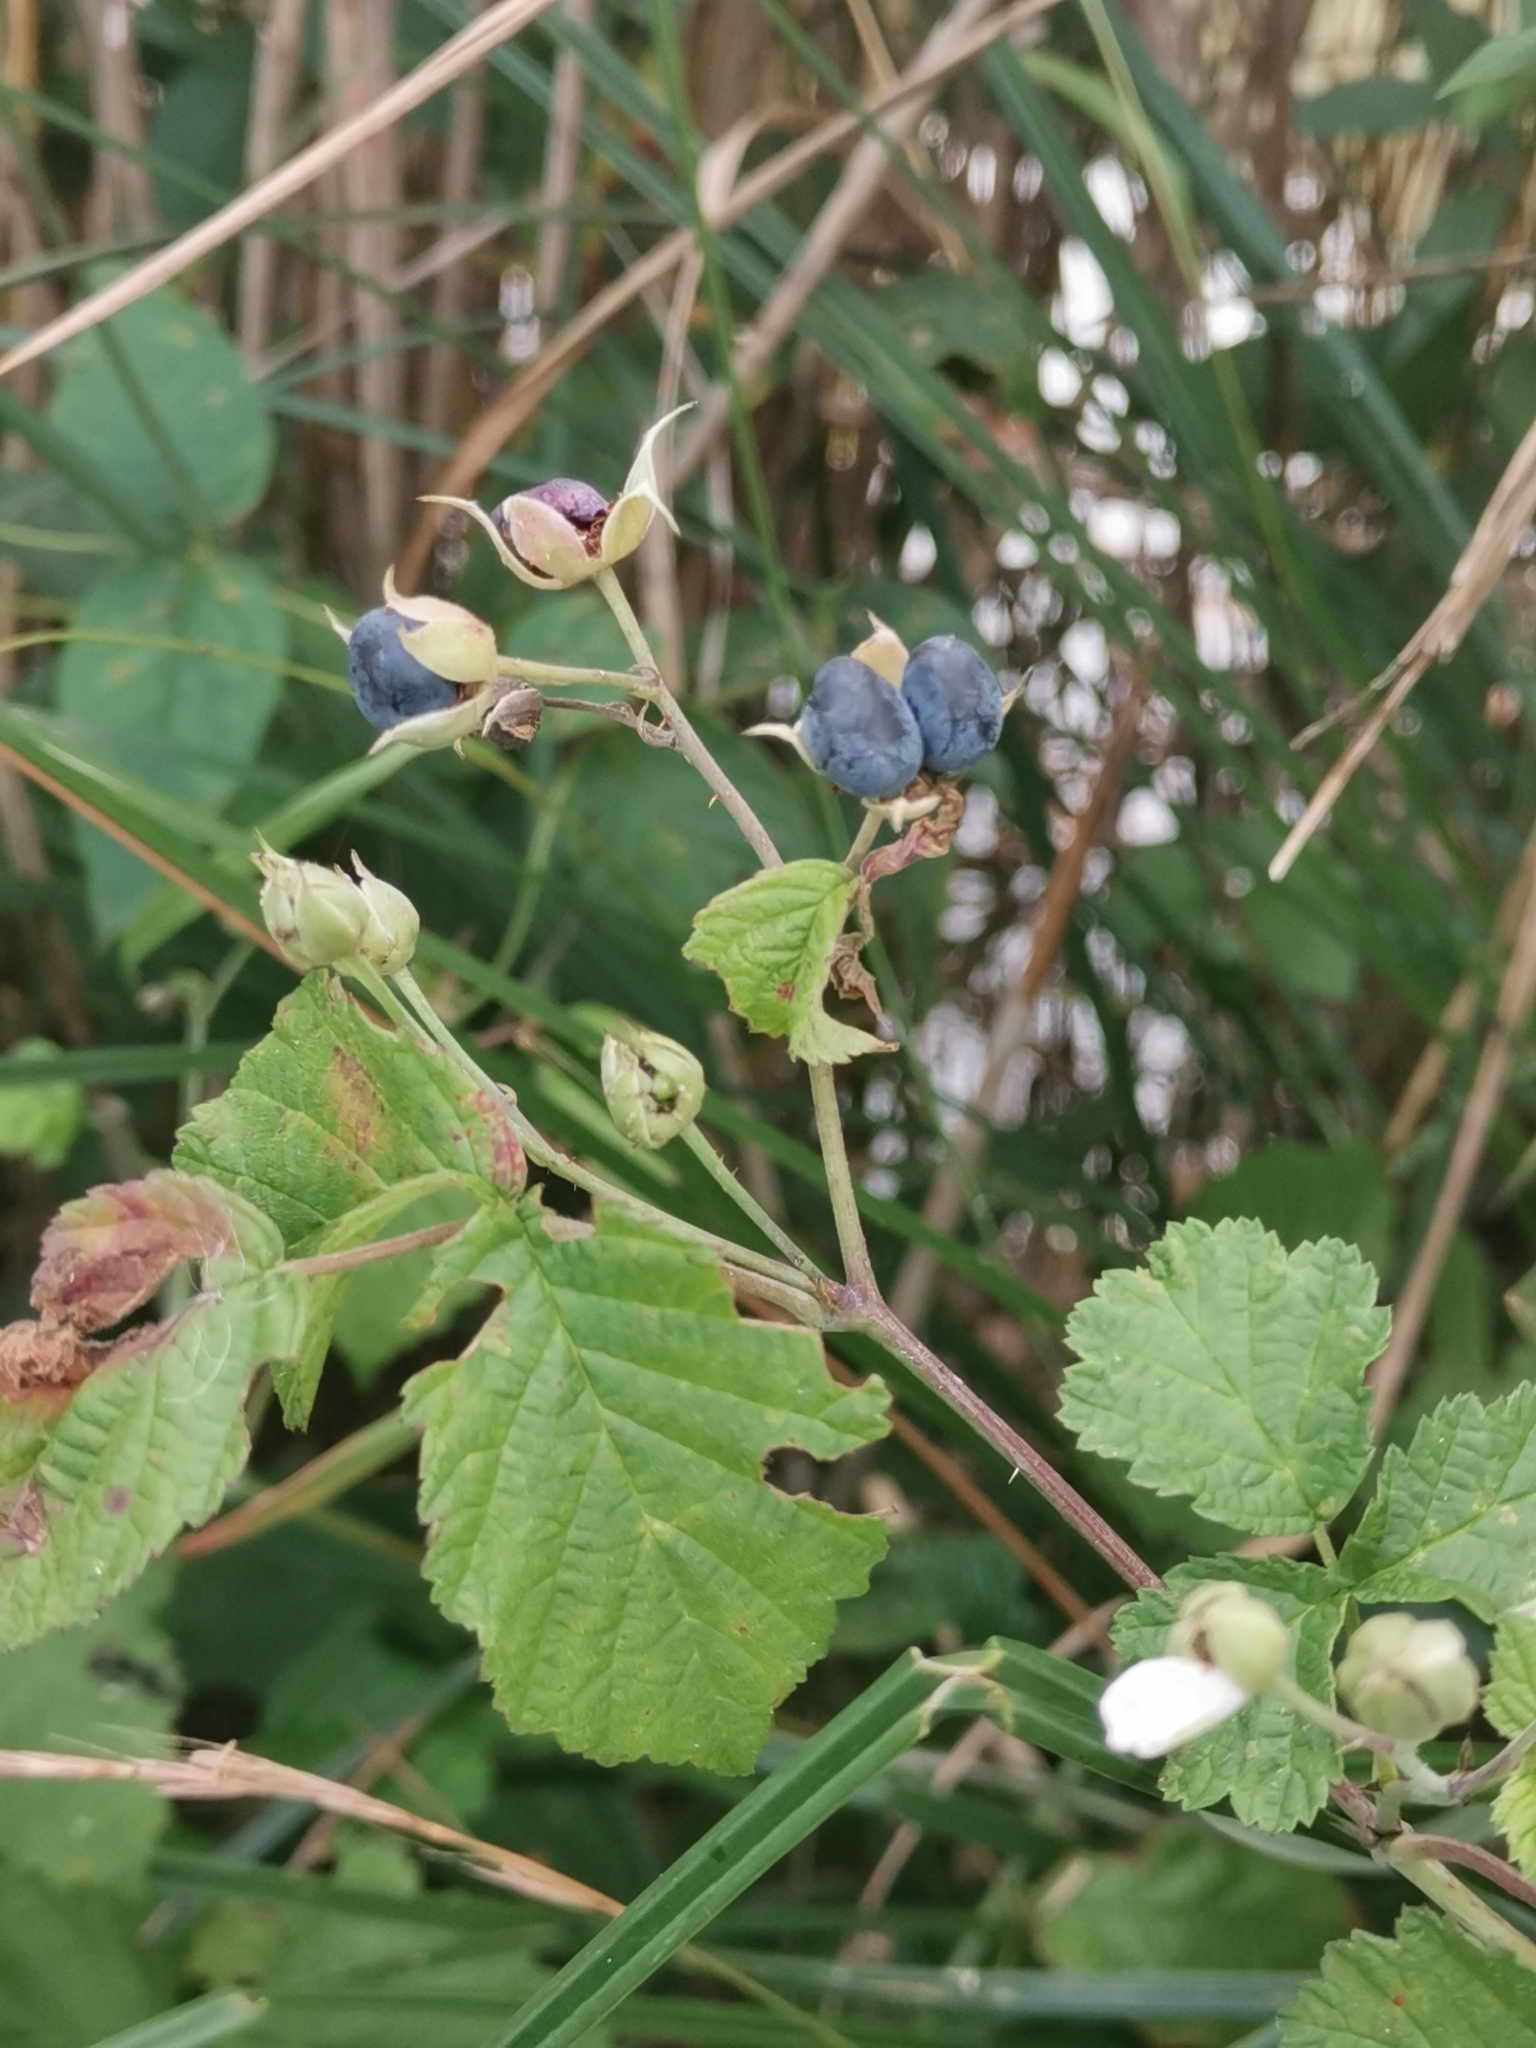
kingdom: Plantae
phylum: Tracheophyta
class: Magnoliopsida
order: Rosales
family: Rosaceae
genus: Rubus
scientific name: Rubus caesius
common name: Dewberry
